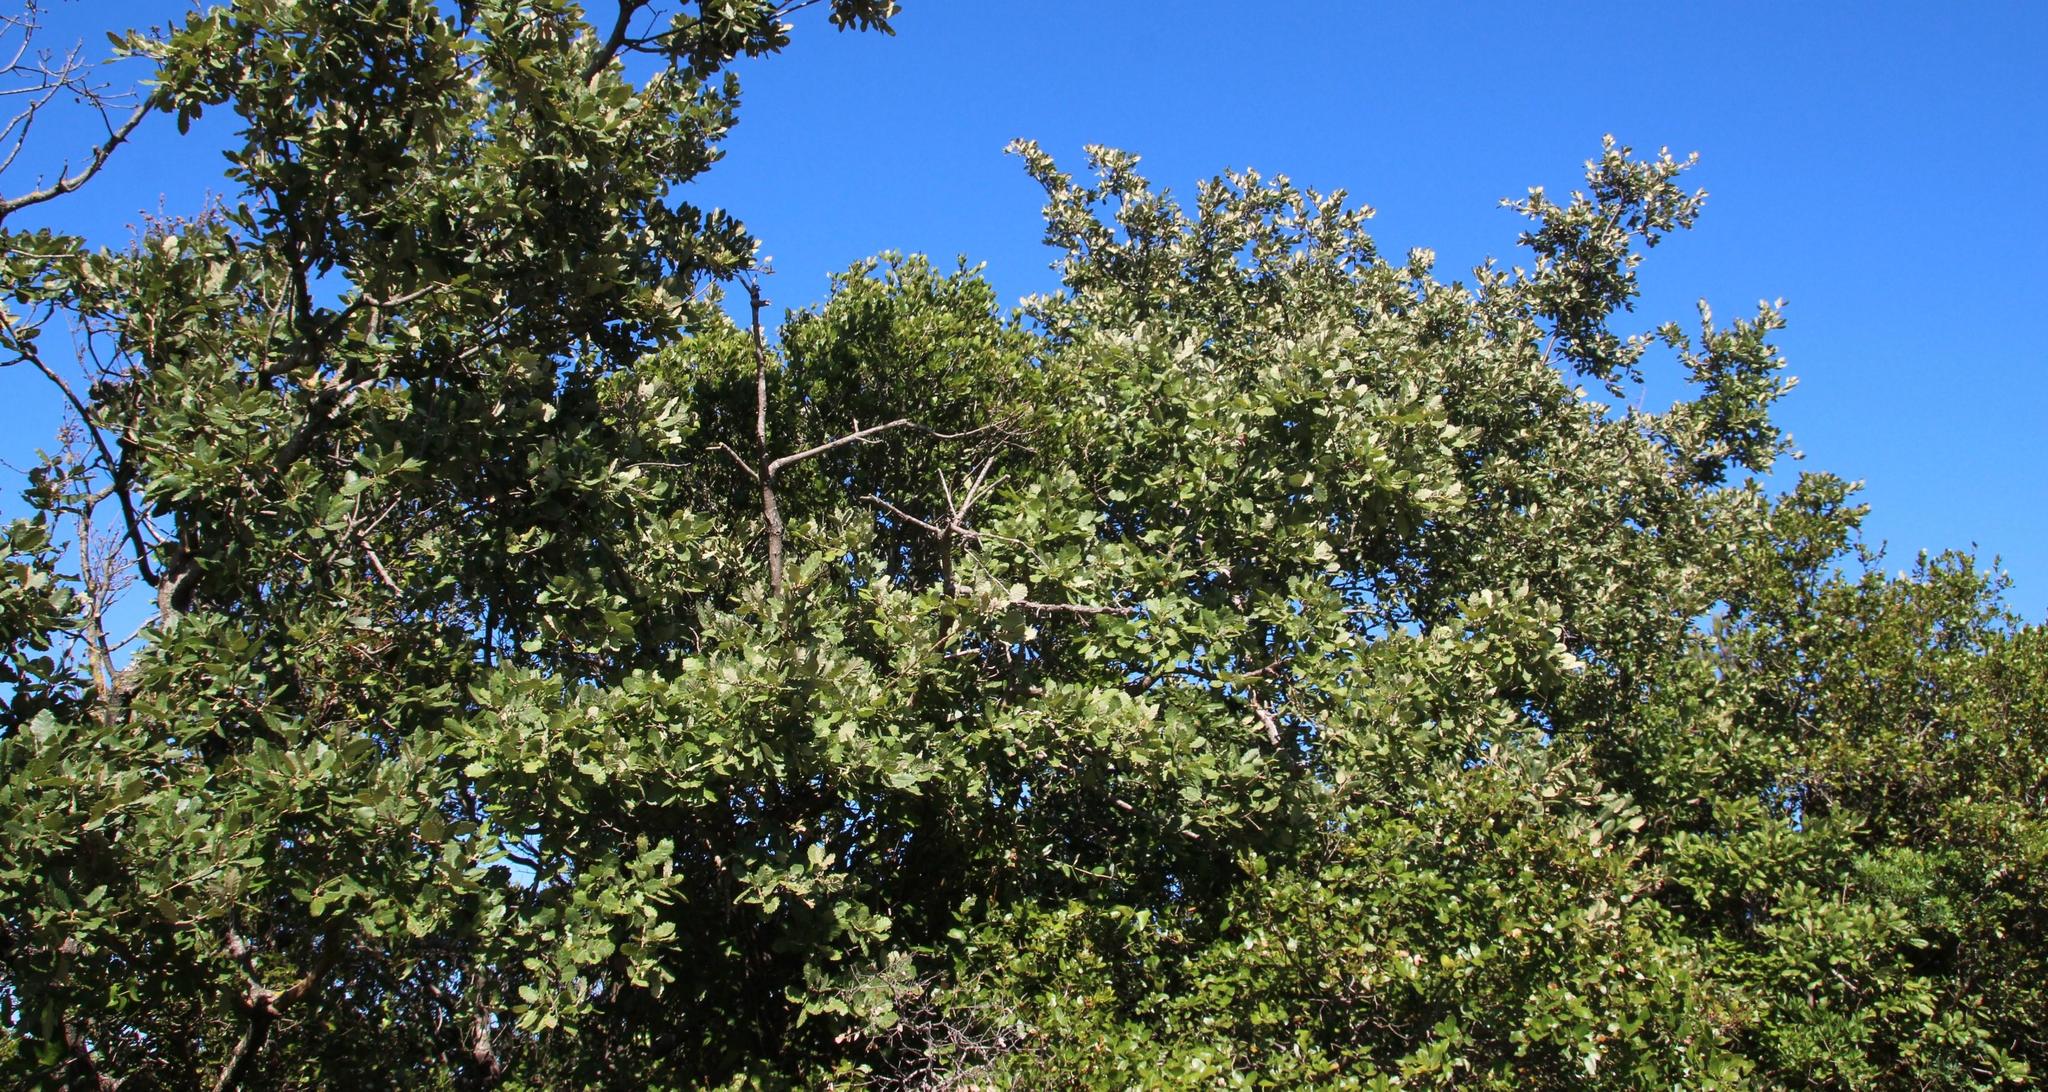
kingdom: Plantae
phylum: Tracheophyta
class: Liliopsida
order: Liliales
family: Smilacaceae
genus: Smilax
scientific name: Smilax aspera
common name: Common smilax
